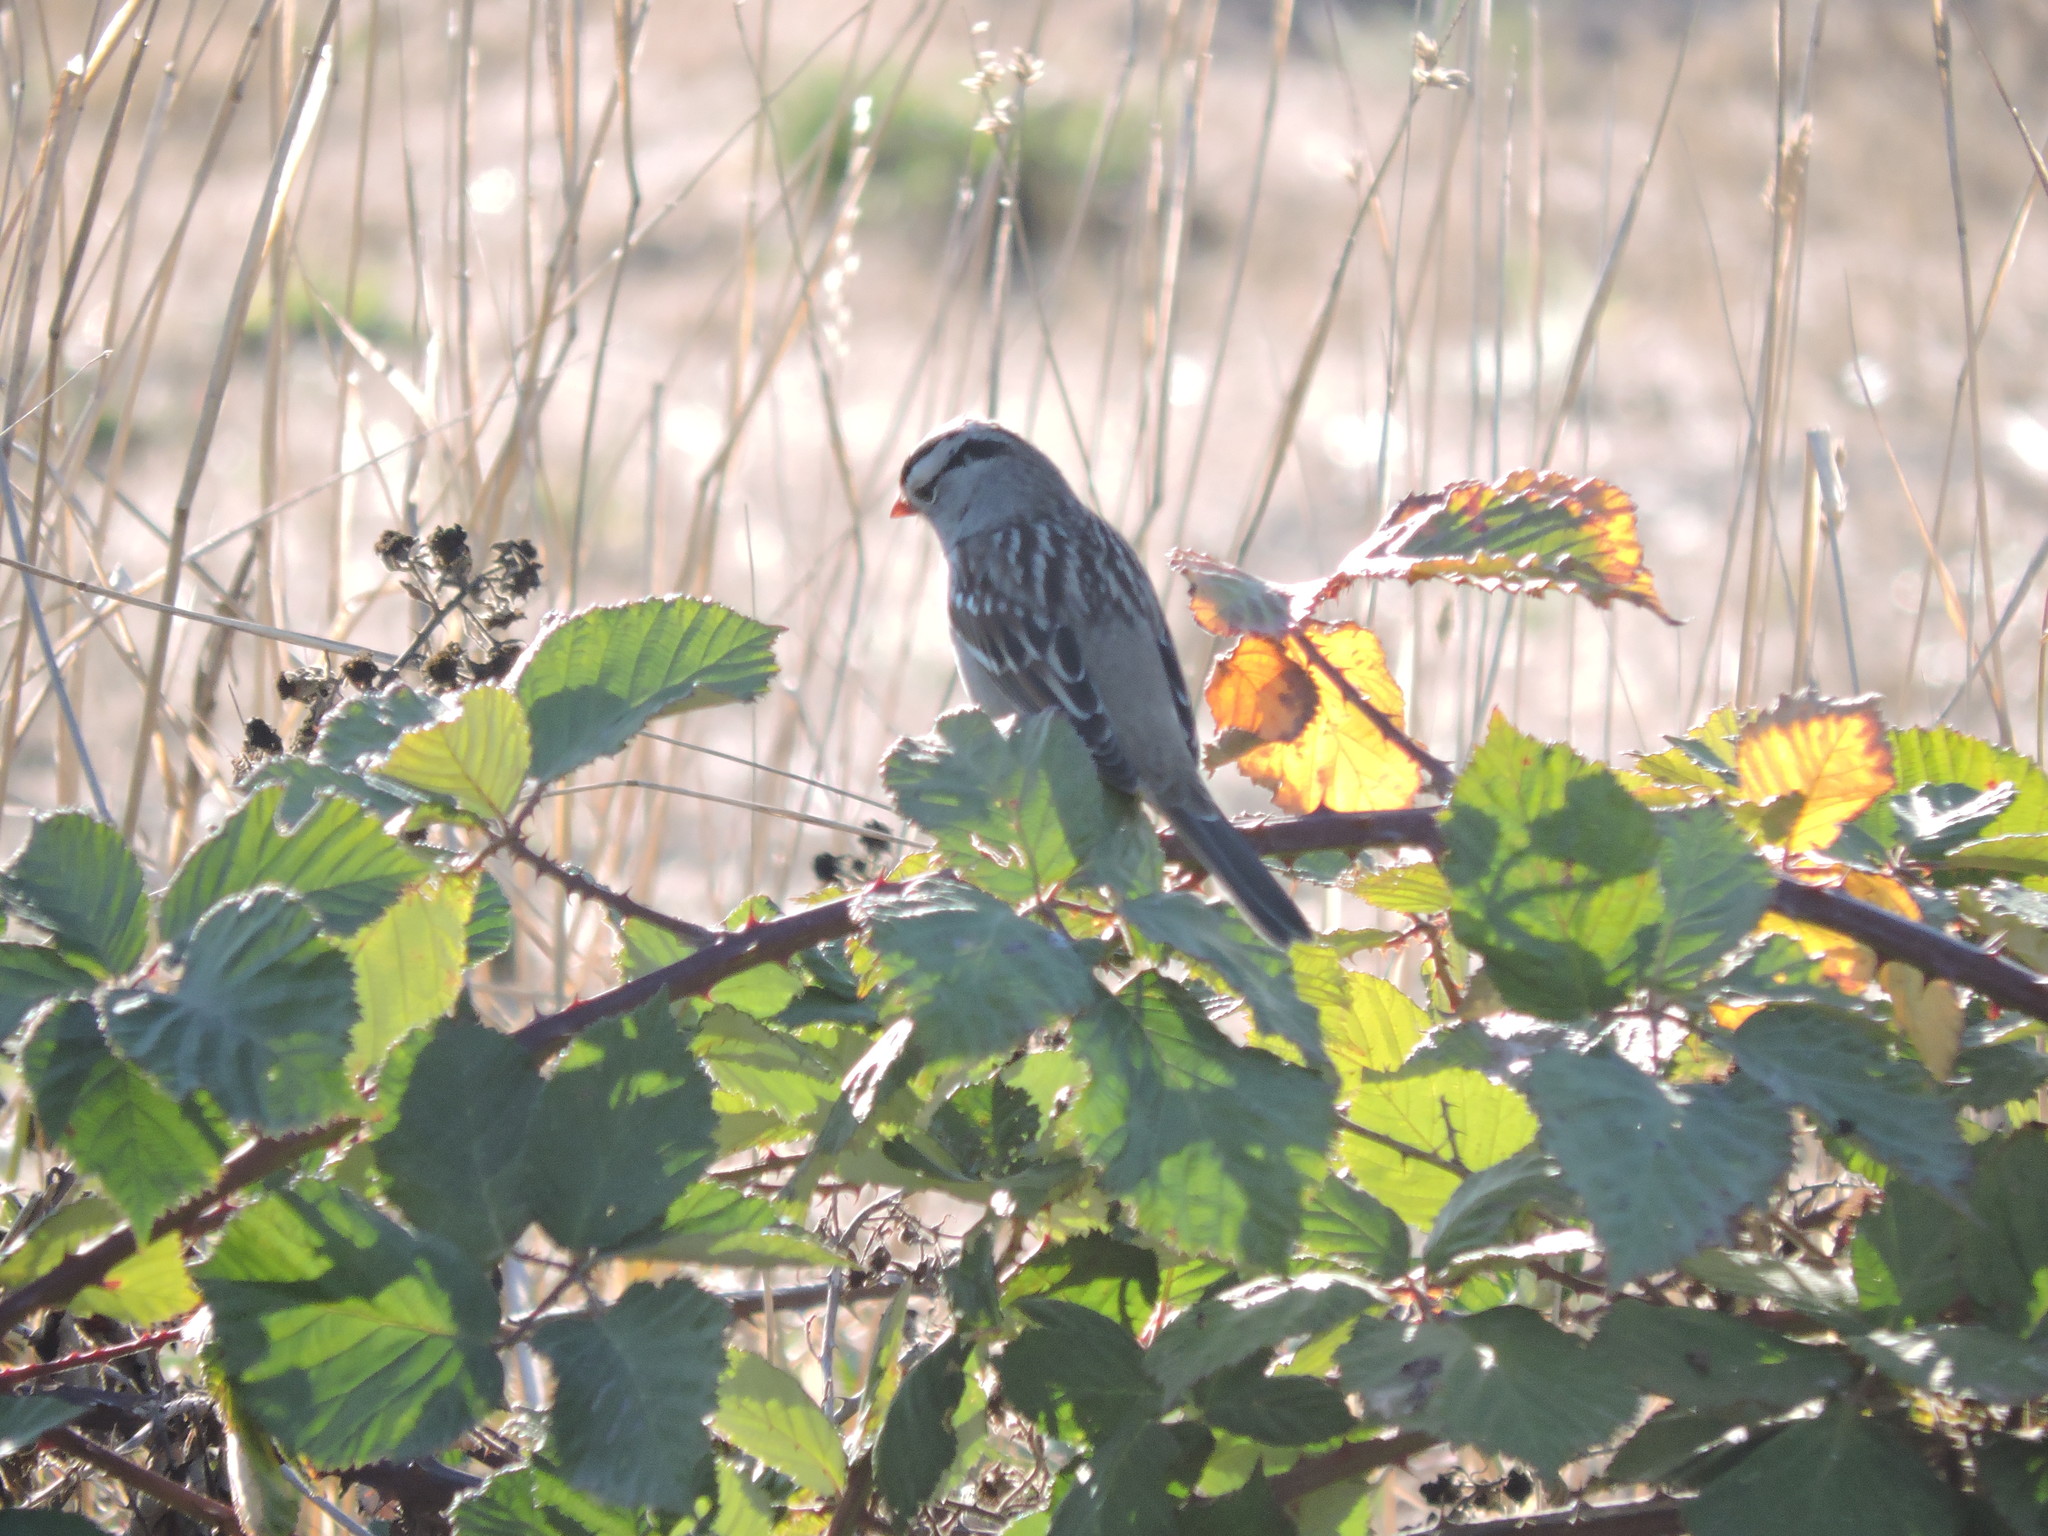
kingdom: Animalia
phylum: Chordata
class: Aves
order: Passeriformes
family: Passerellidae
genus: Zonotrichia
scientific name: Zonotrichia leucophrys
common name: White-crowned sparrow
